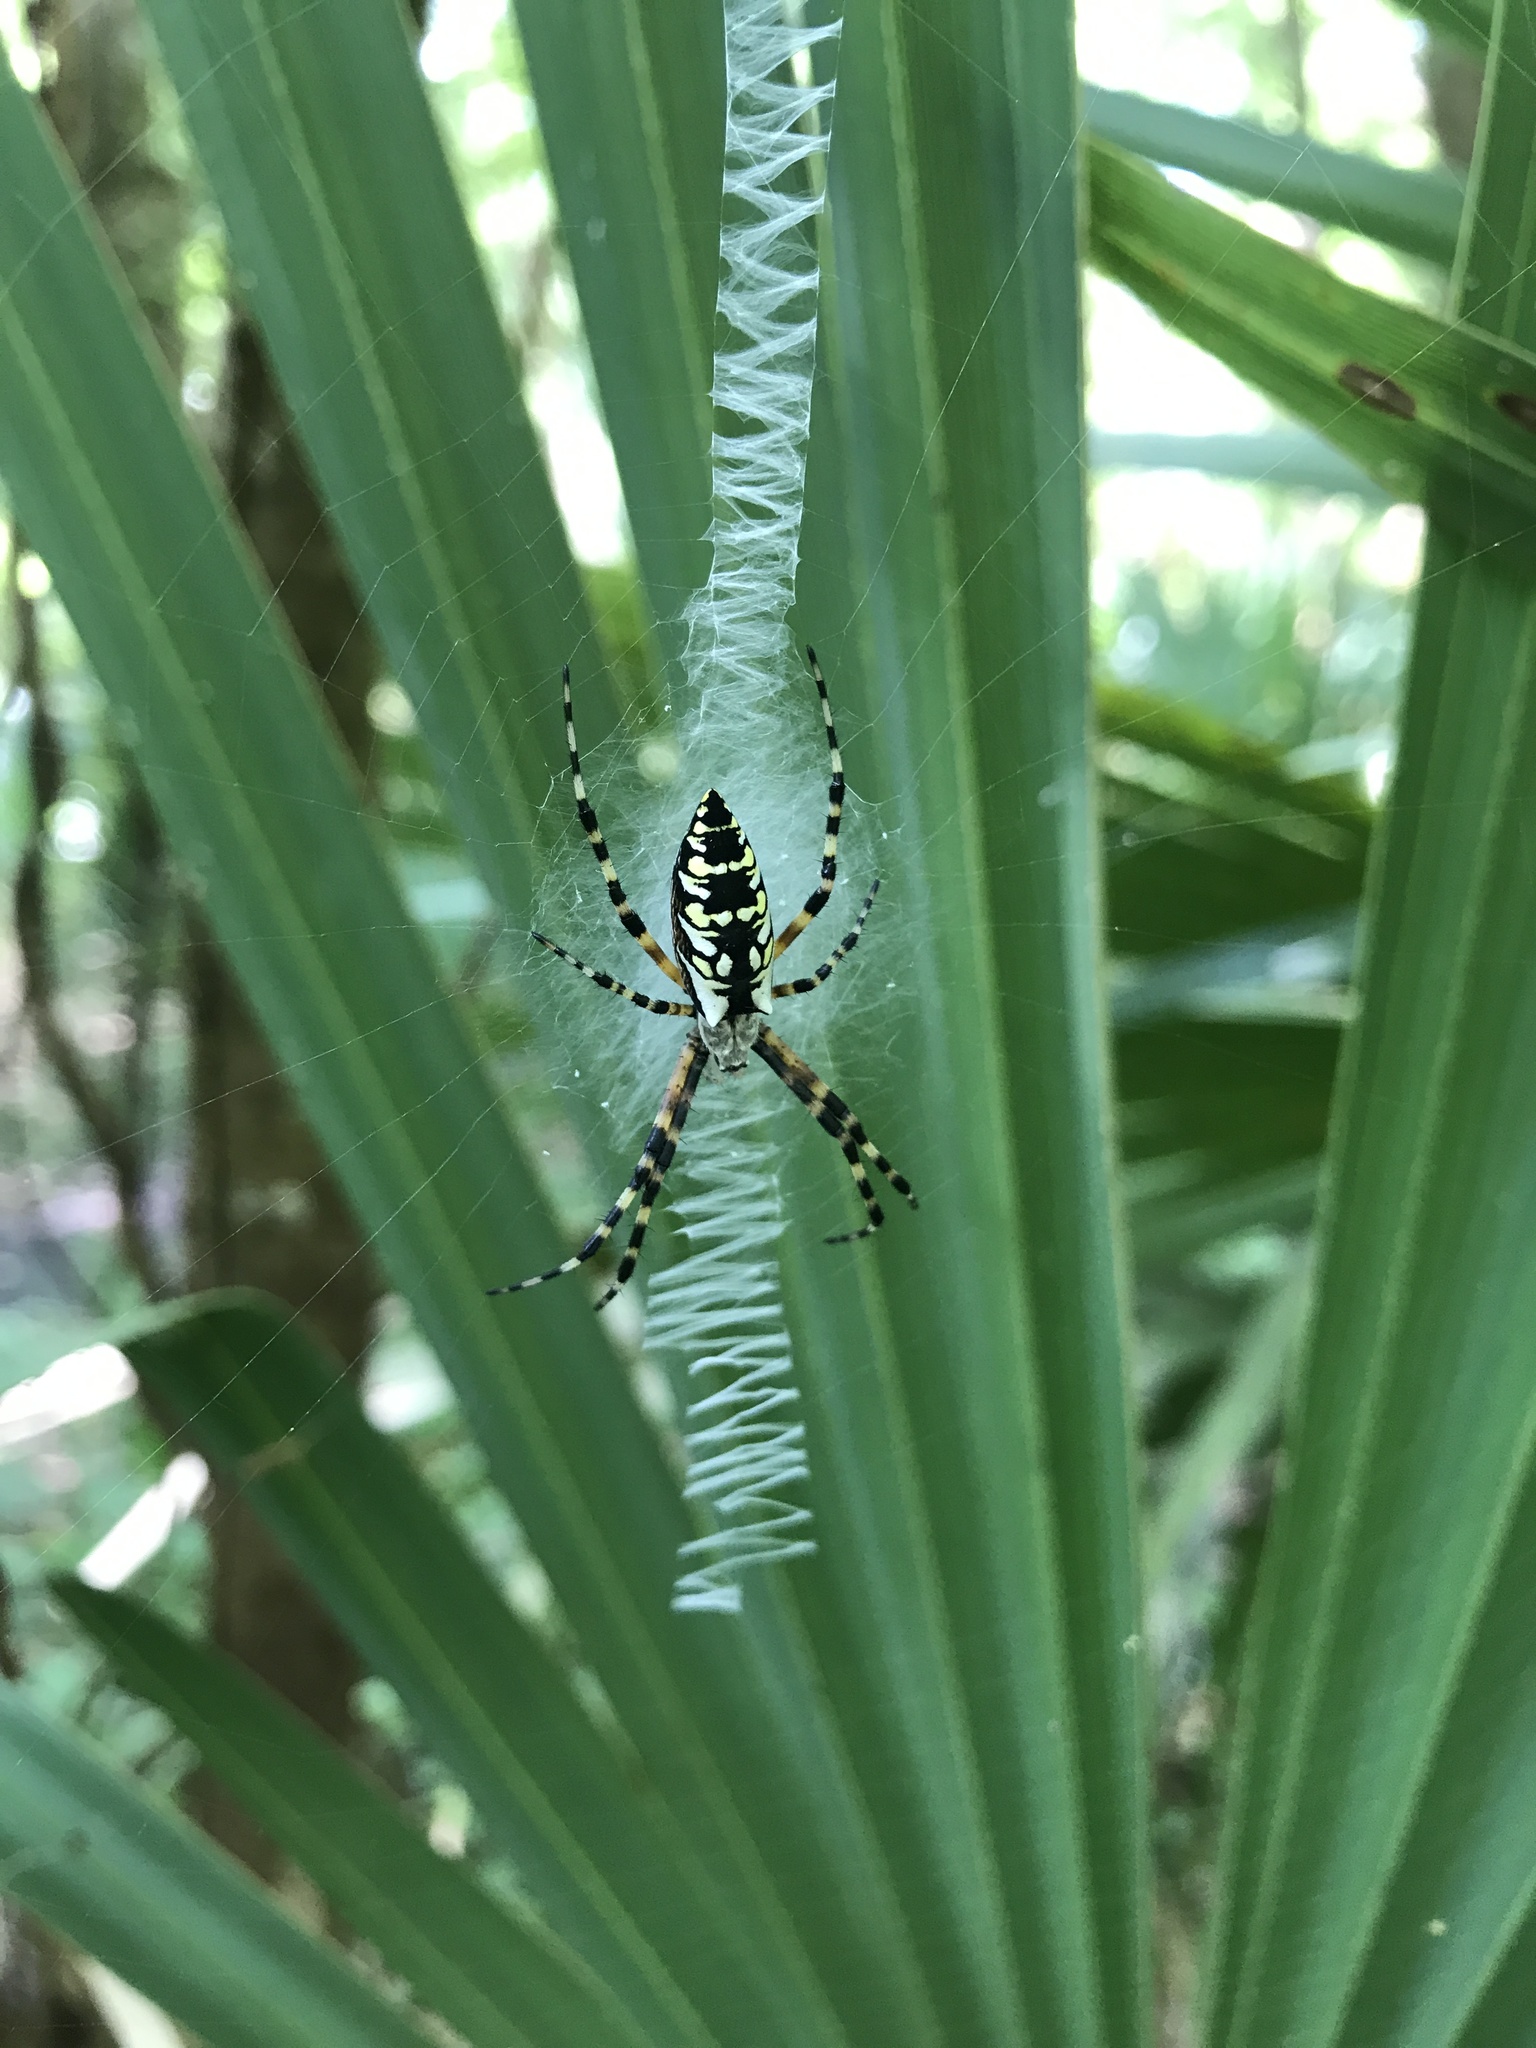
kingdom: Animalia
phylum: Arthropoda
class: Arachnida
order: Araneae
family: Araneidae
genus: Argiope
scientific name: Argiope aurantia
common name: Orb weavers
